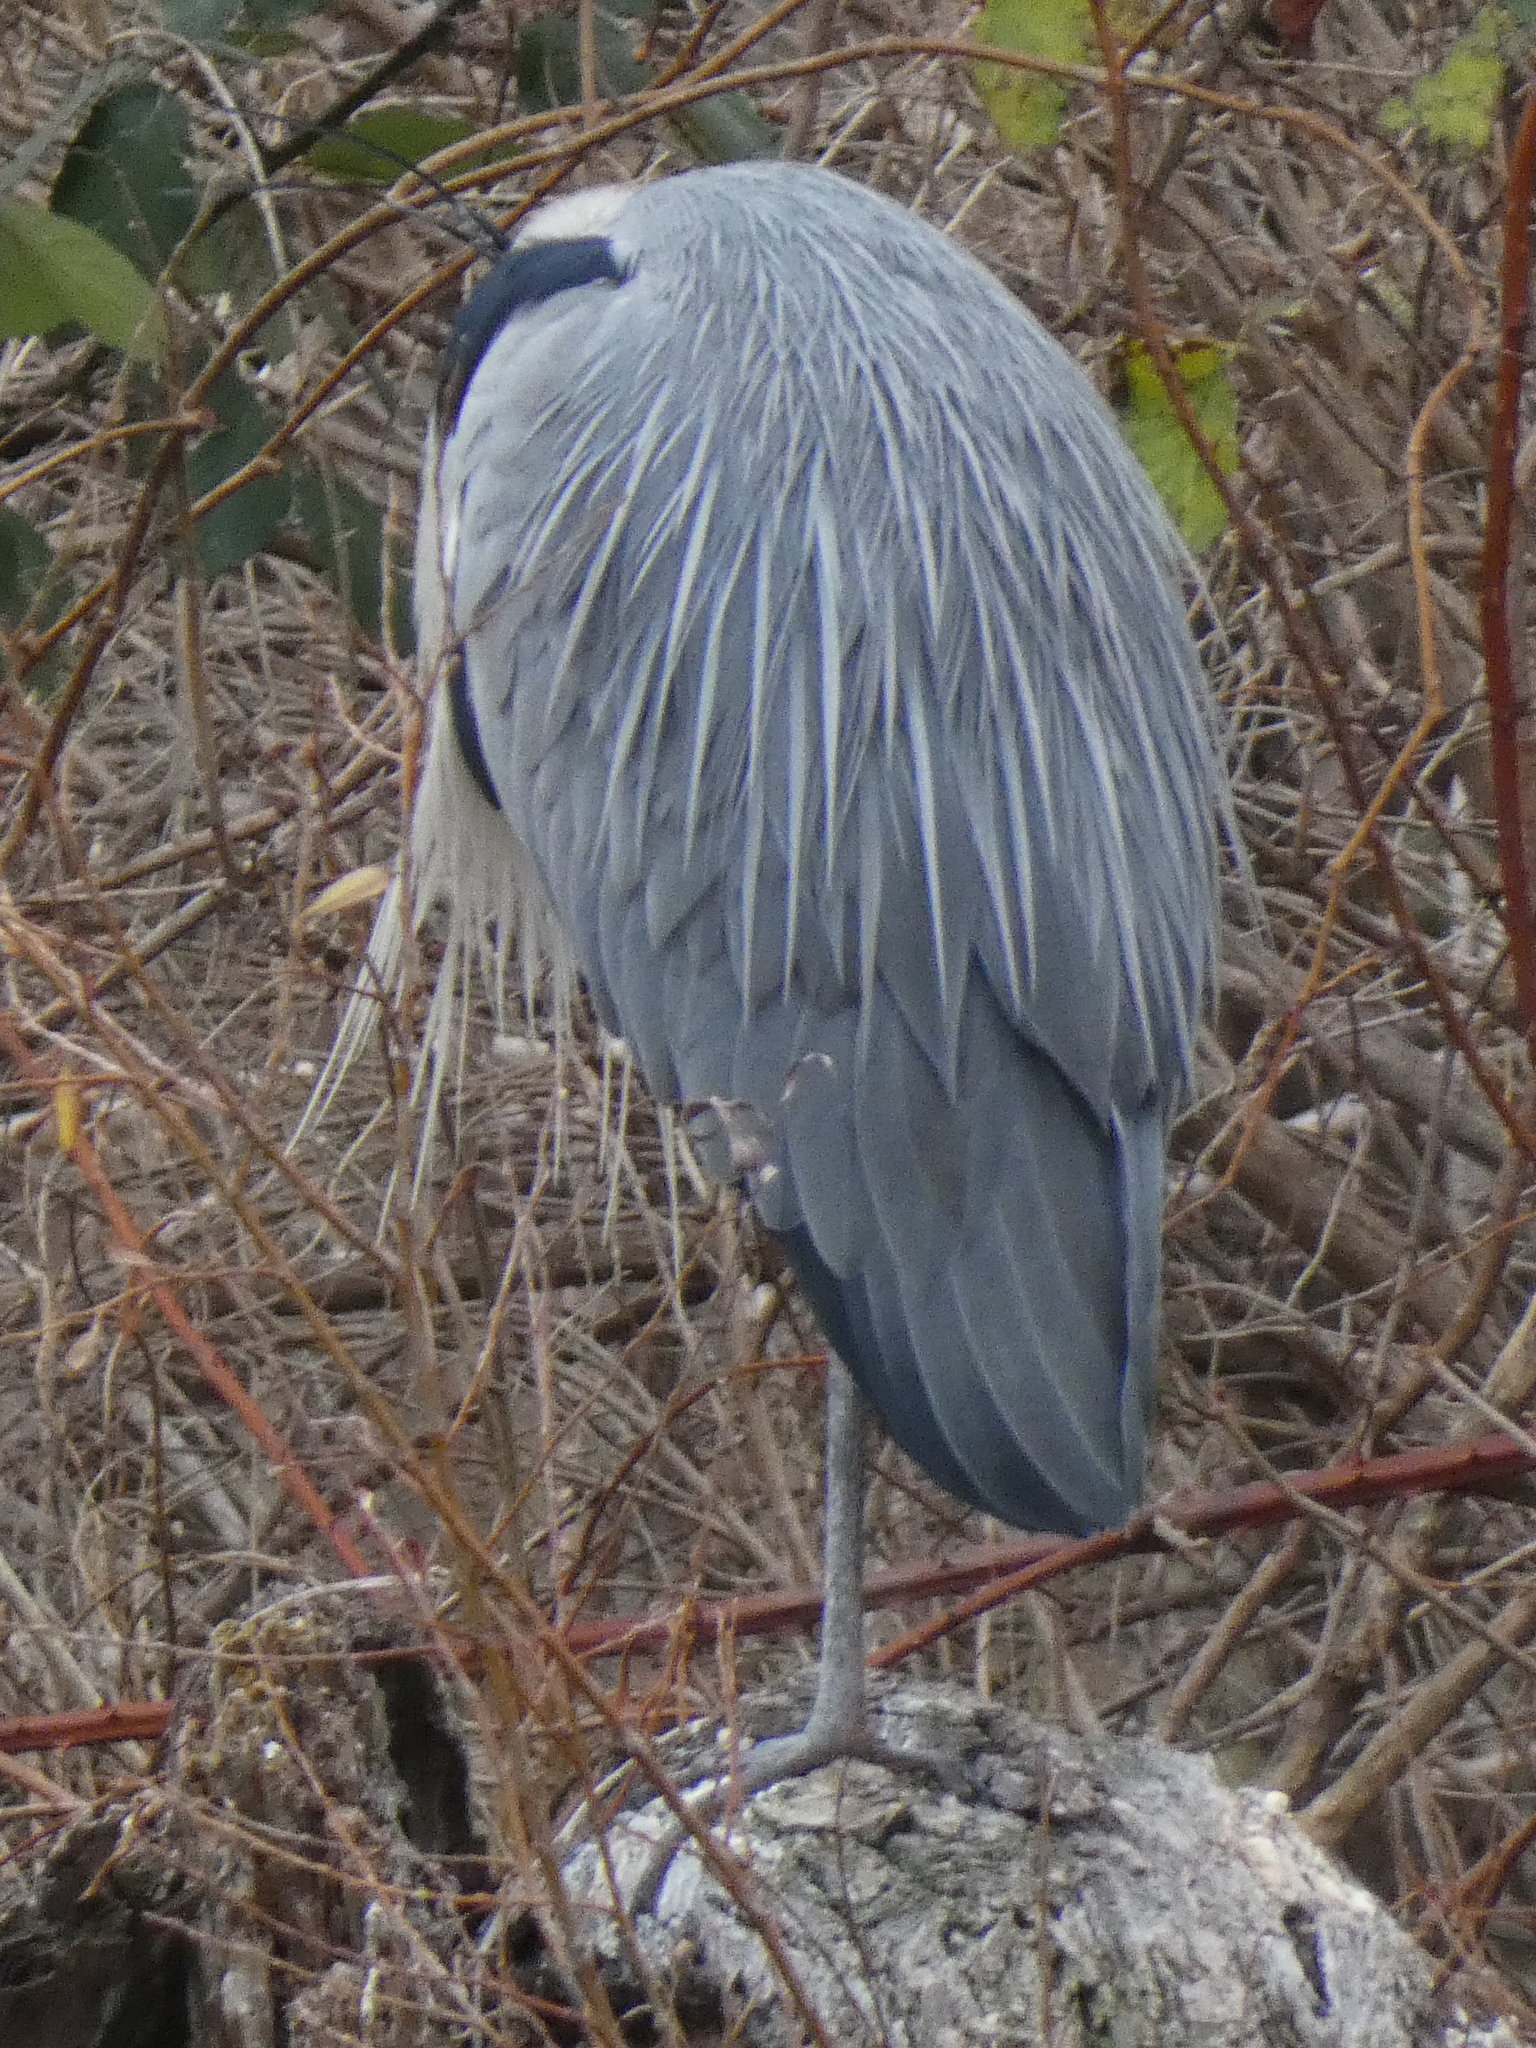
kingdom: Animalia
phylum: Chordata
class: Aves
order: Pelecaniformes
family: Ardeidae
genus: Ardea
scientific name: Ardea cinerea
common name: Grey heron
